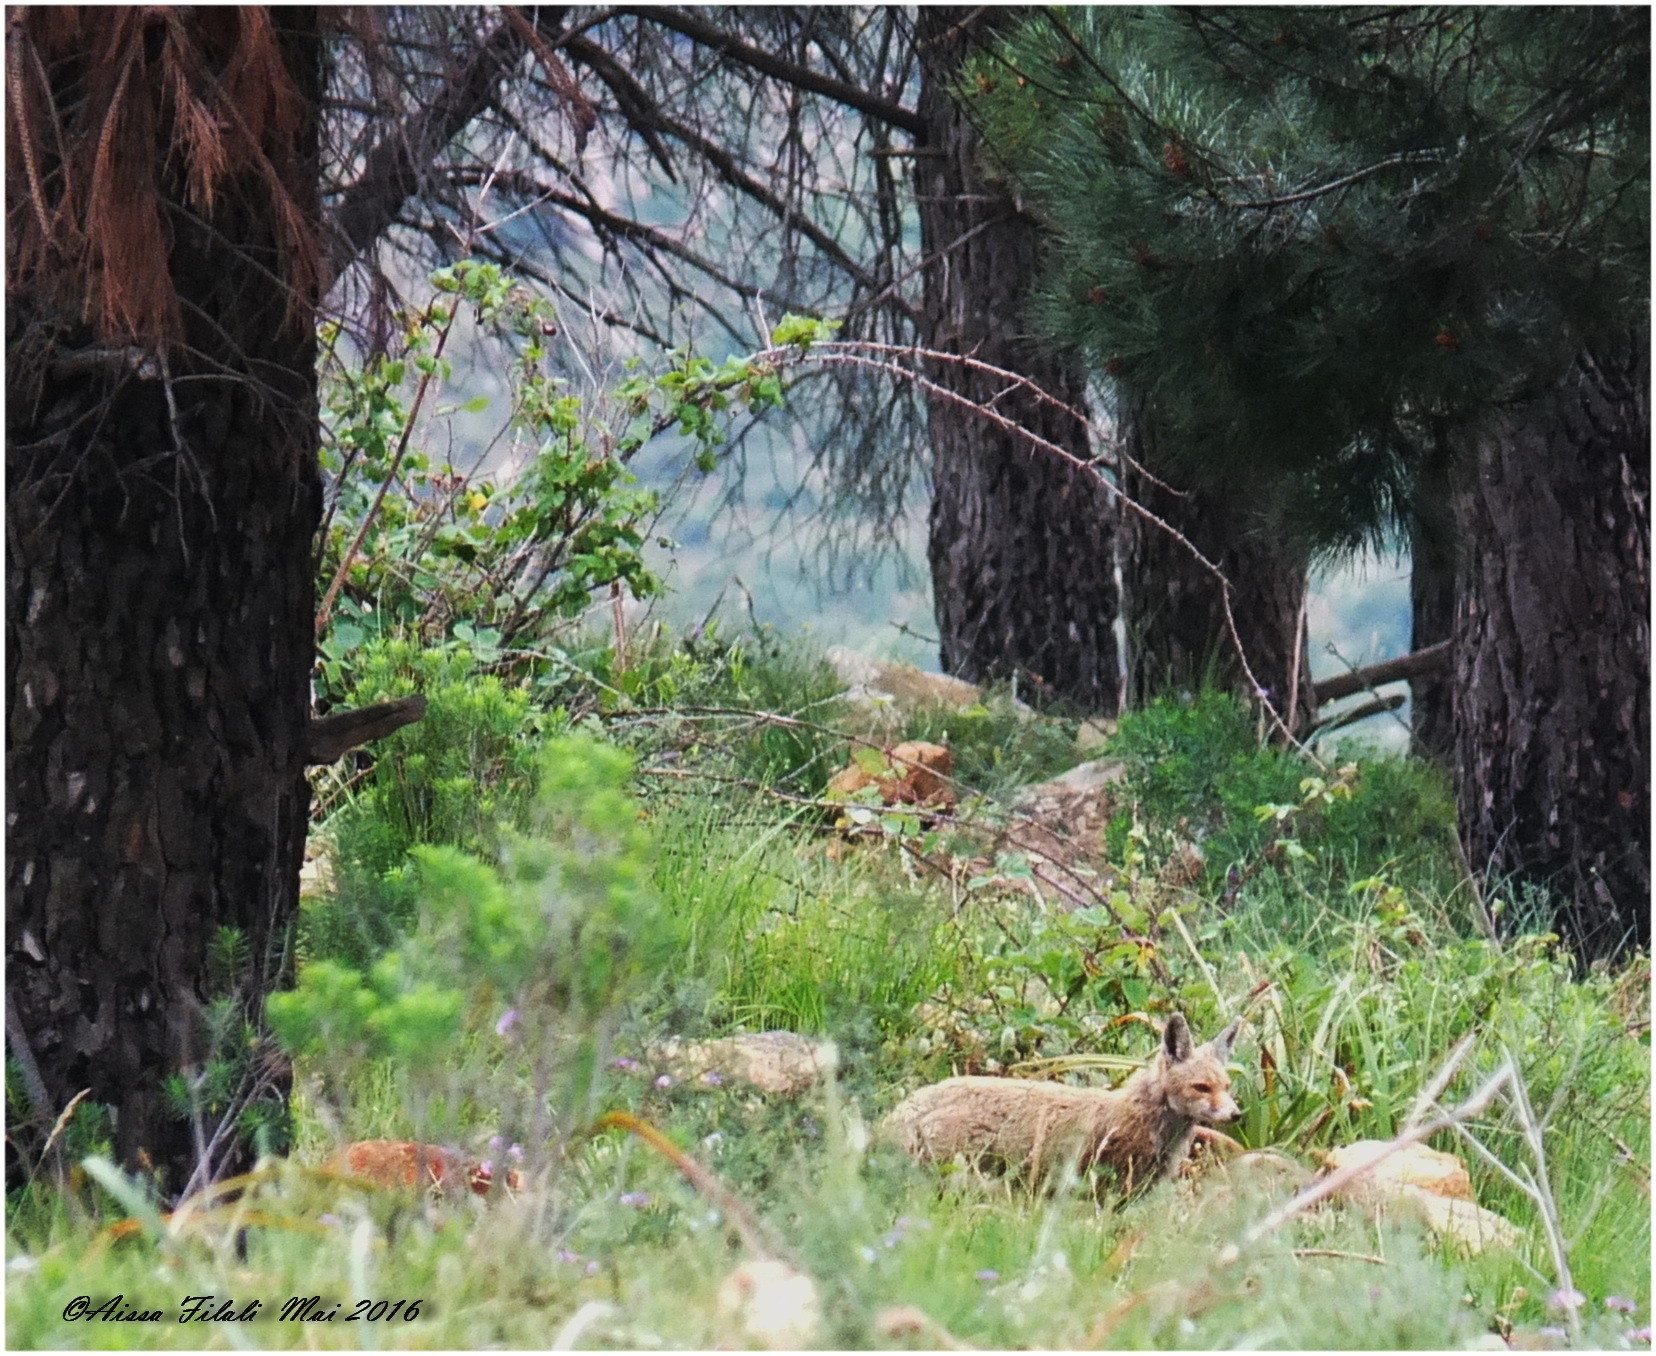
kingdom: Animalia
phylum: Chordata
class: Mammalia
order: Carnivora
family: Canidae
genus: Vulpes
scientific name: Vulpes vulpes
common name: Red fox
